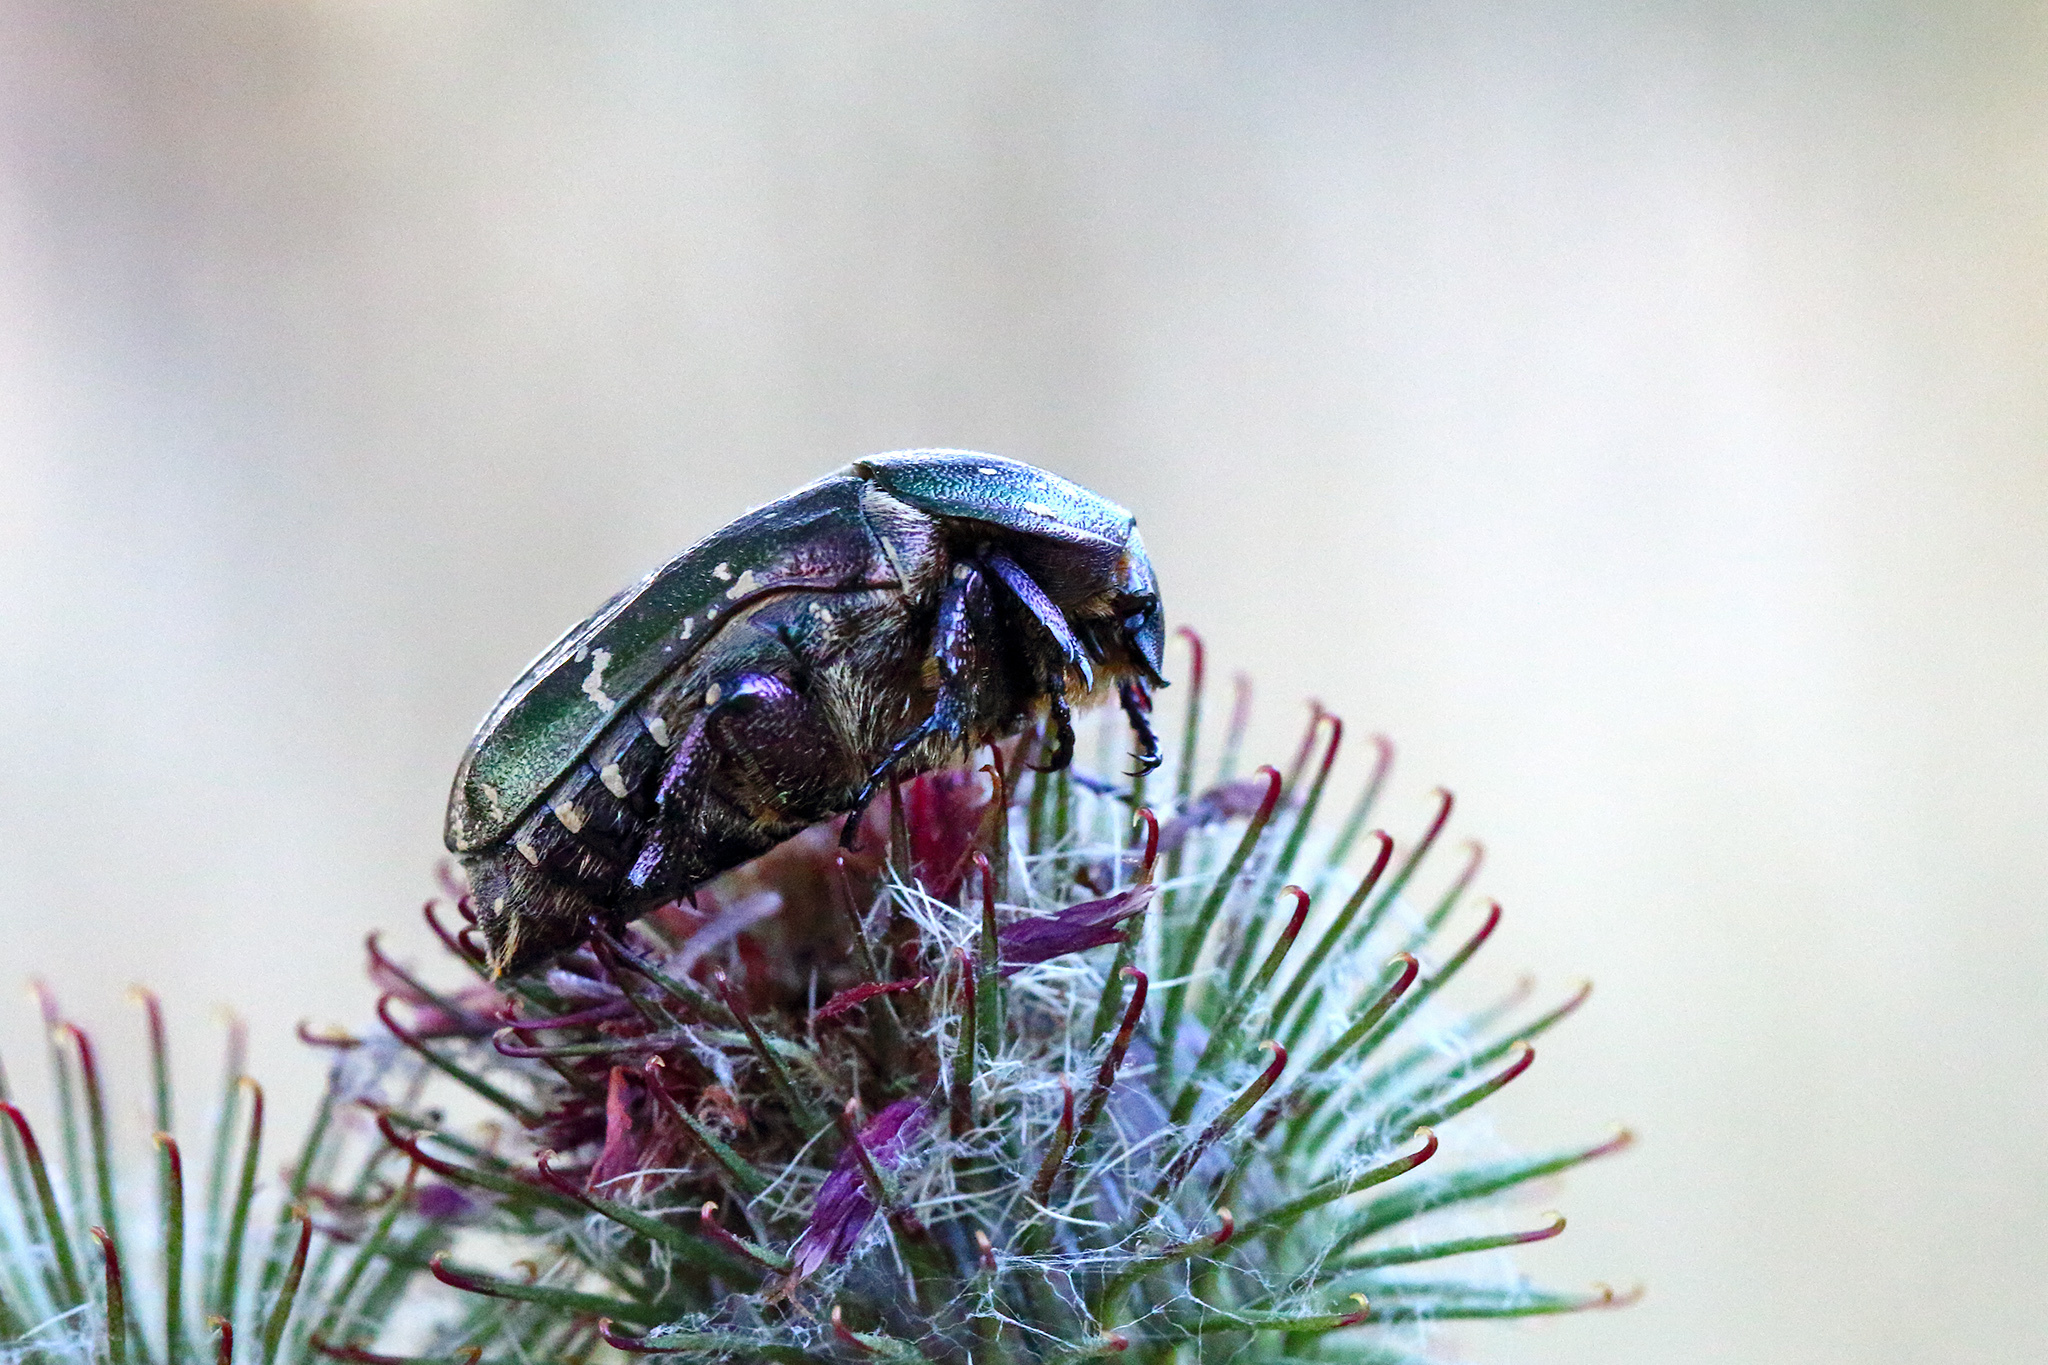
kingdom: Animalia
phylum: Arthropoda
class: Insecta
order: Coleoptera
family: Scarabaeidae
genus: Protaetia
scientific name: Protaetia cuprea
